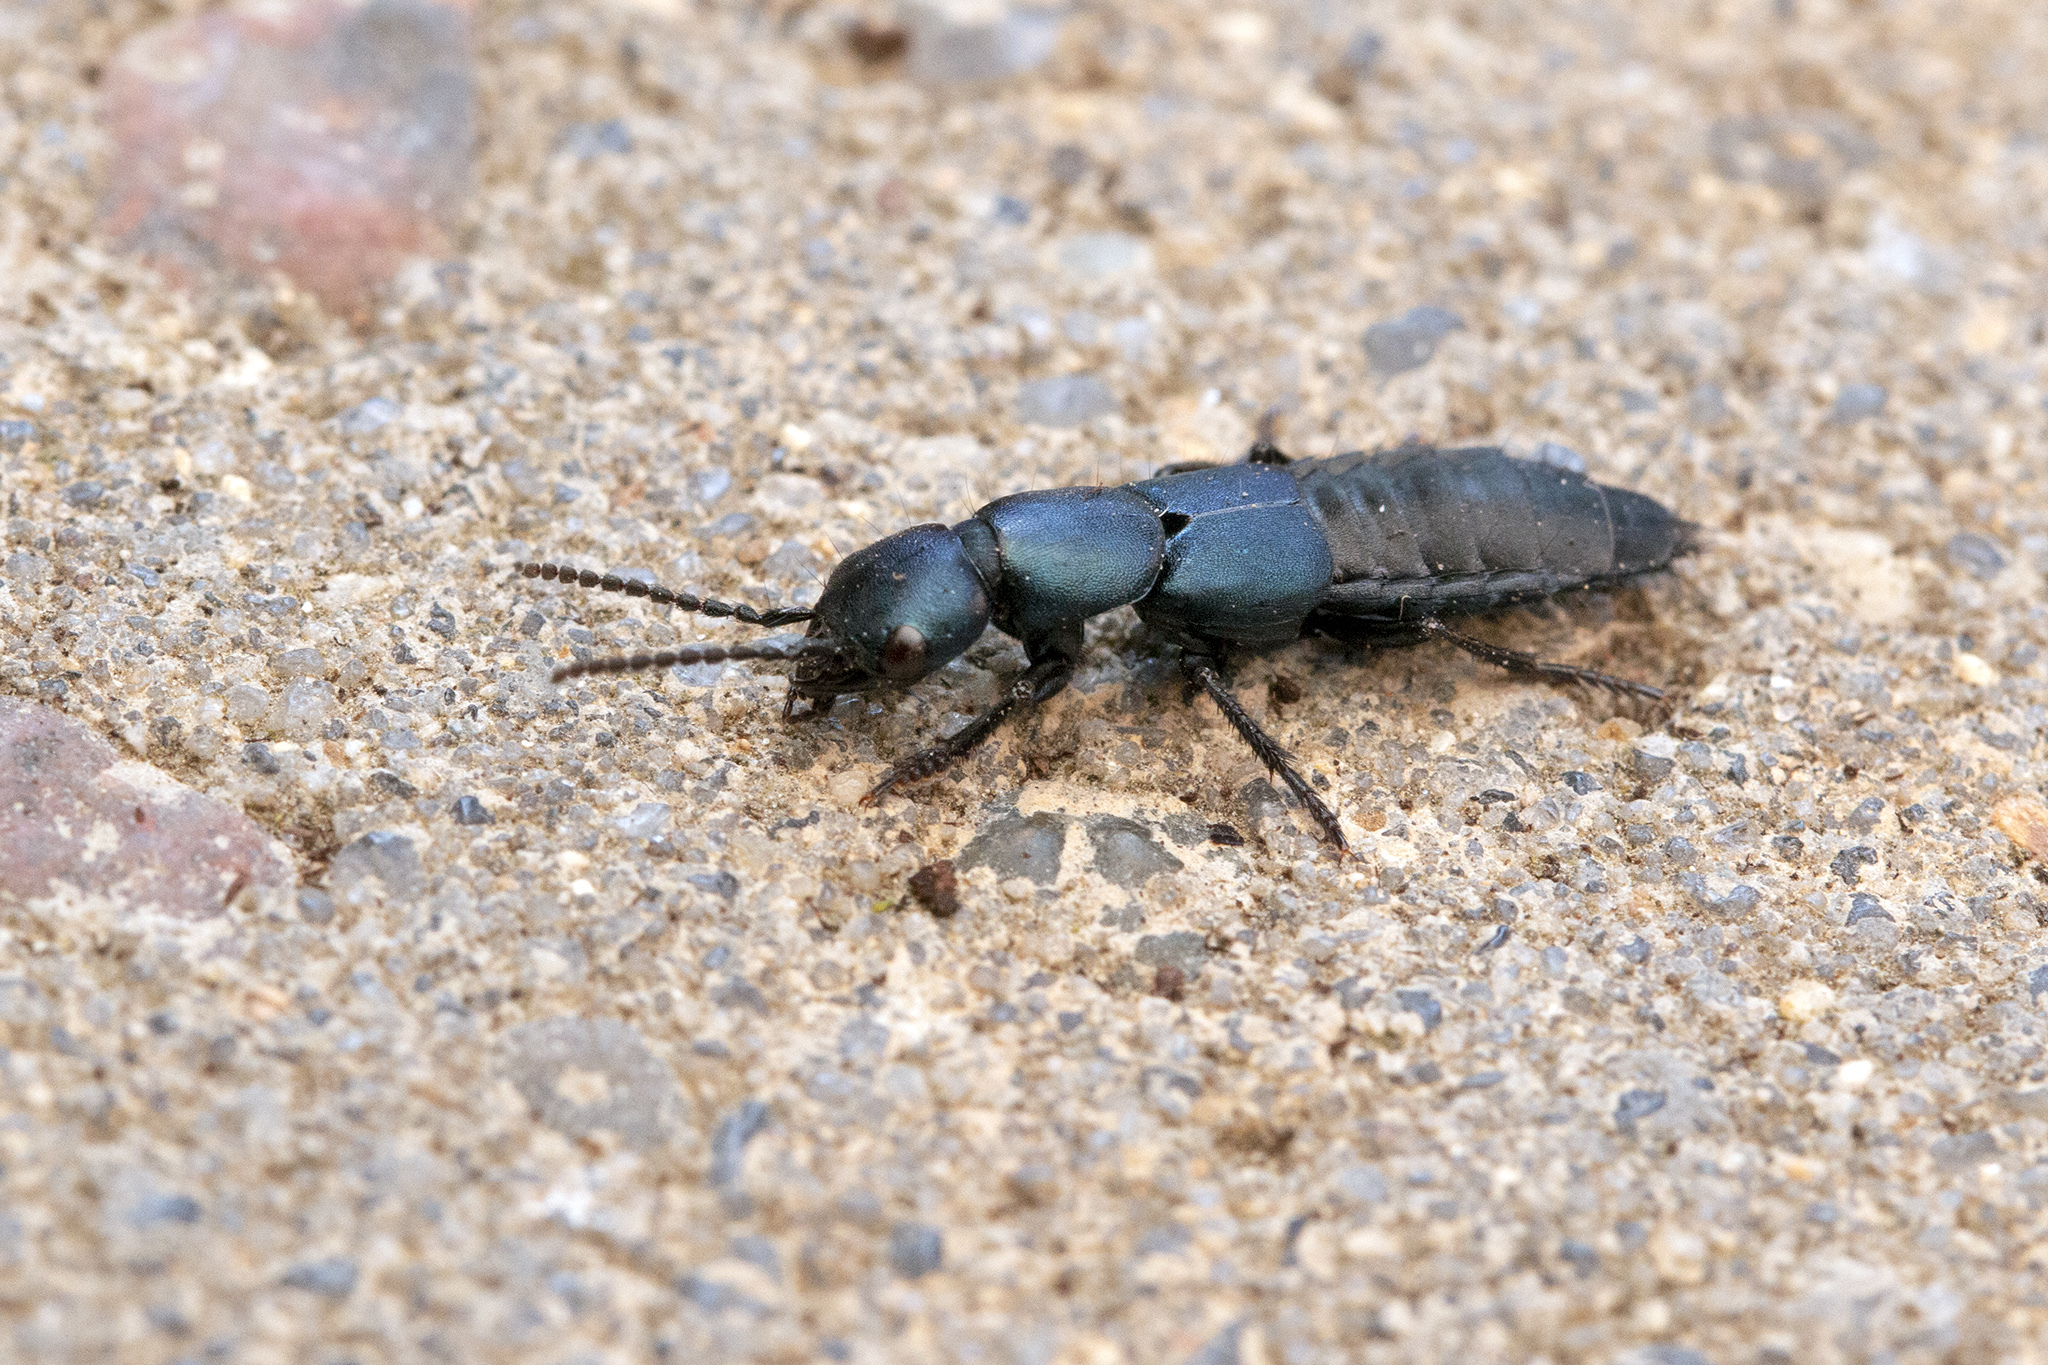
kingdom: Animalia
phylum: Arthropoda
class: Insecta
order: Coleoptera
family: Staphylinidae
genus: Ocypus
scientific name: Ocypus ophthalmicus
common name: Blue rove-beetle
